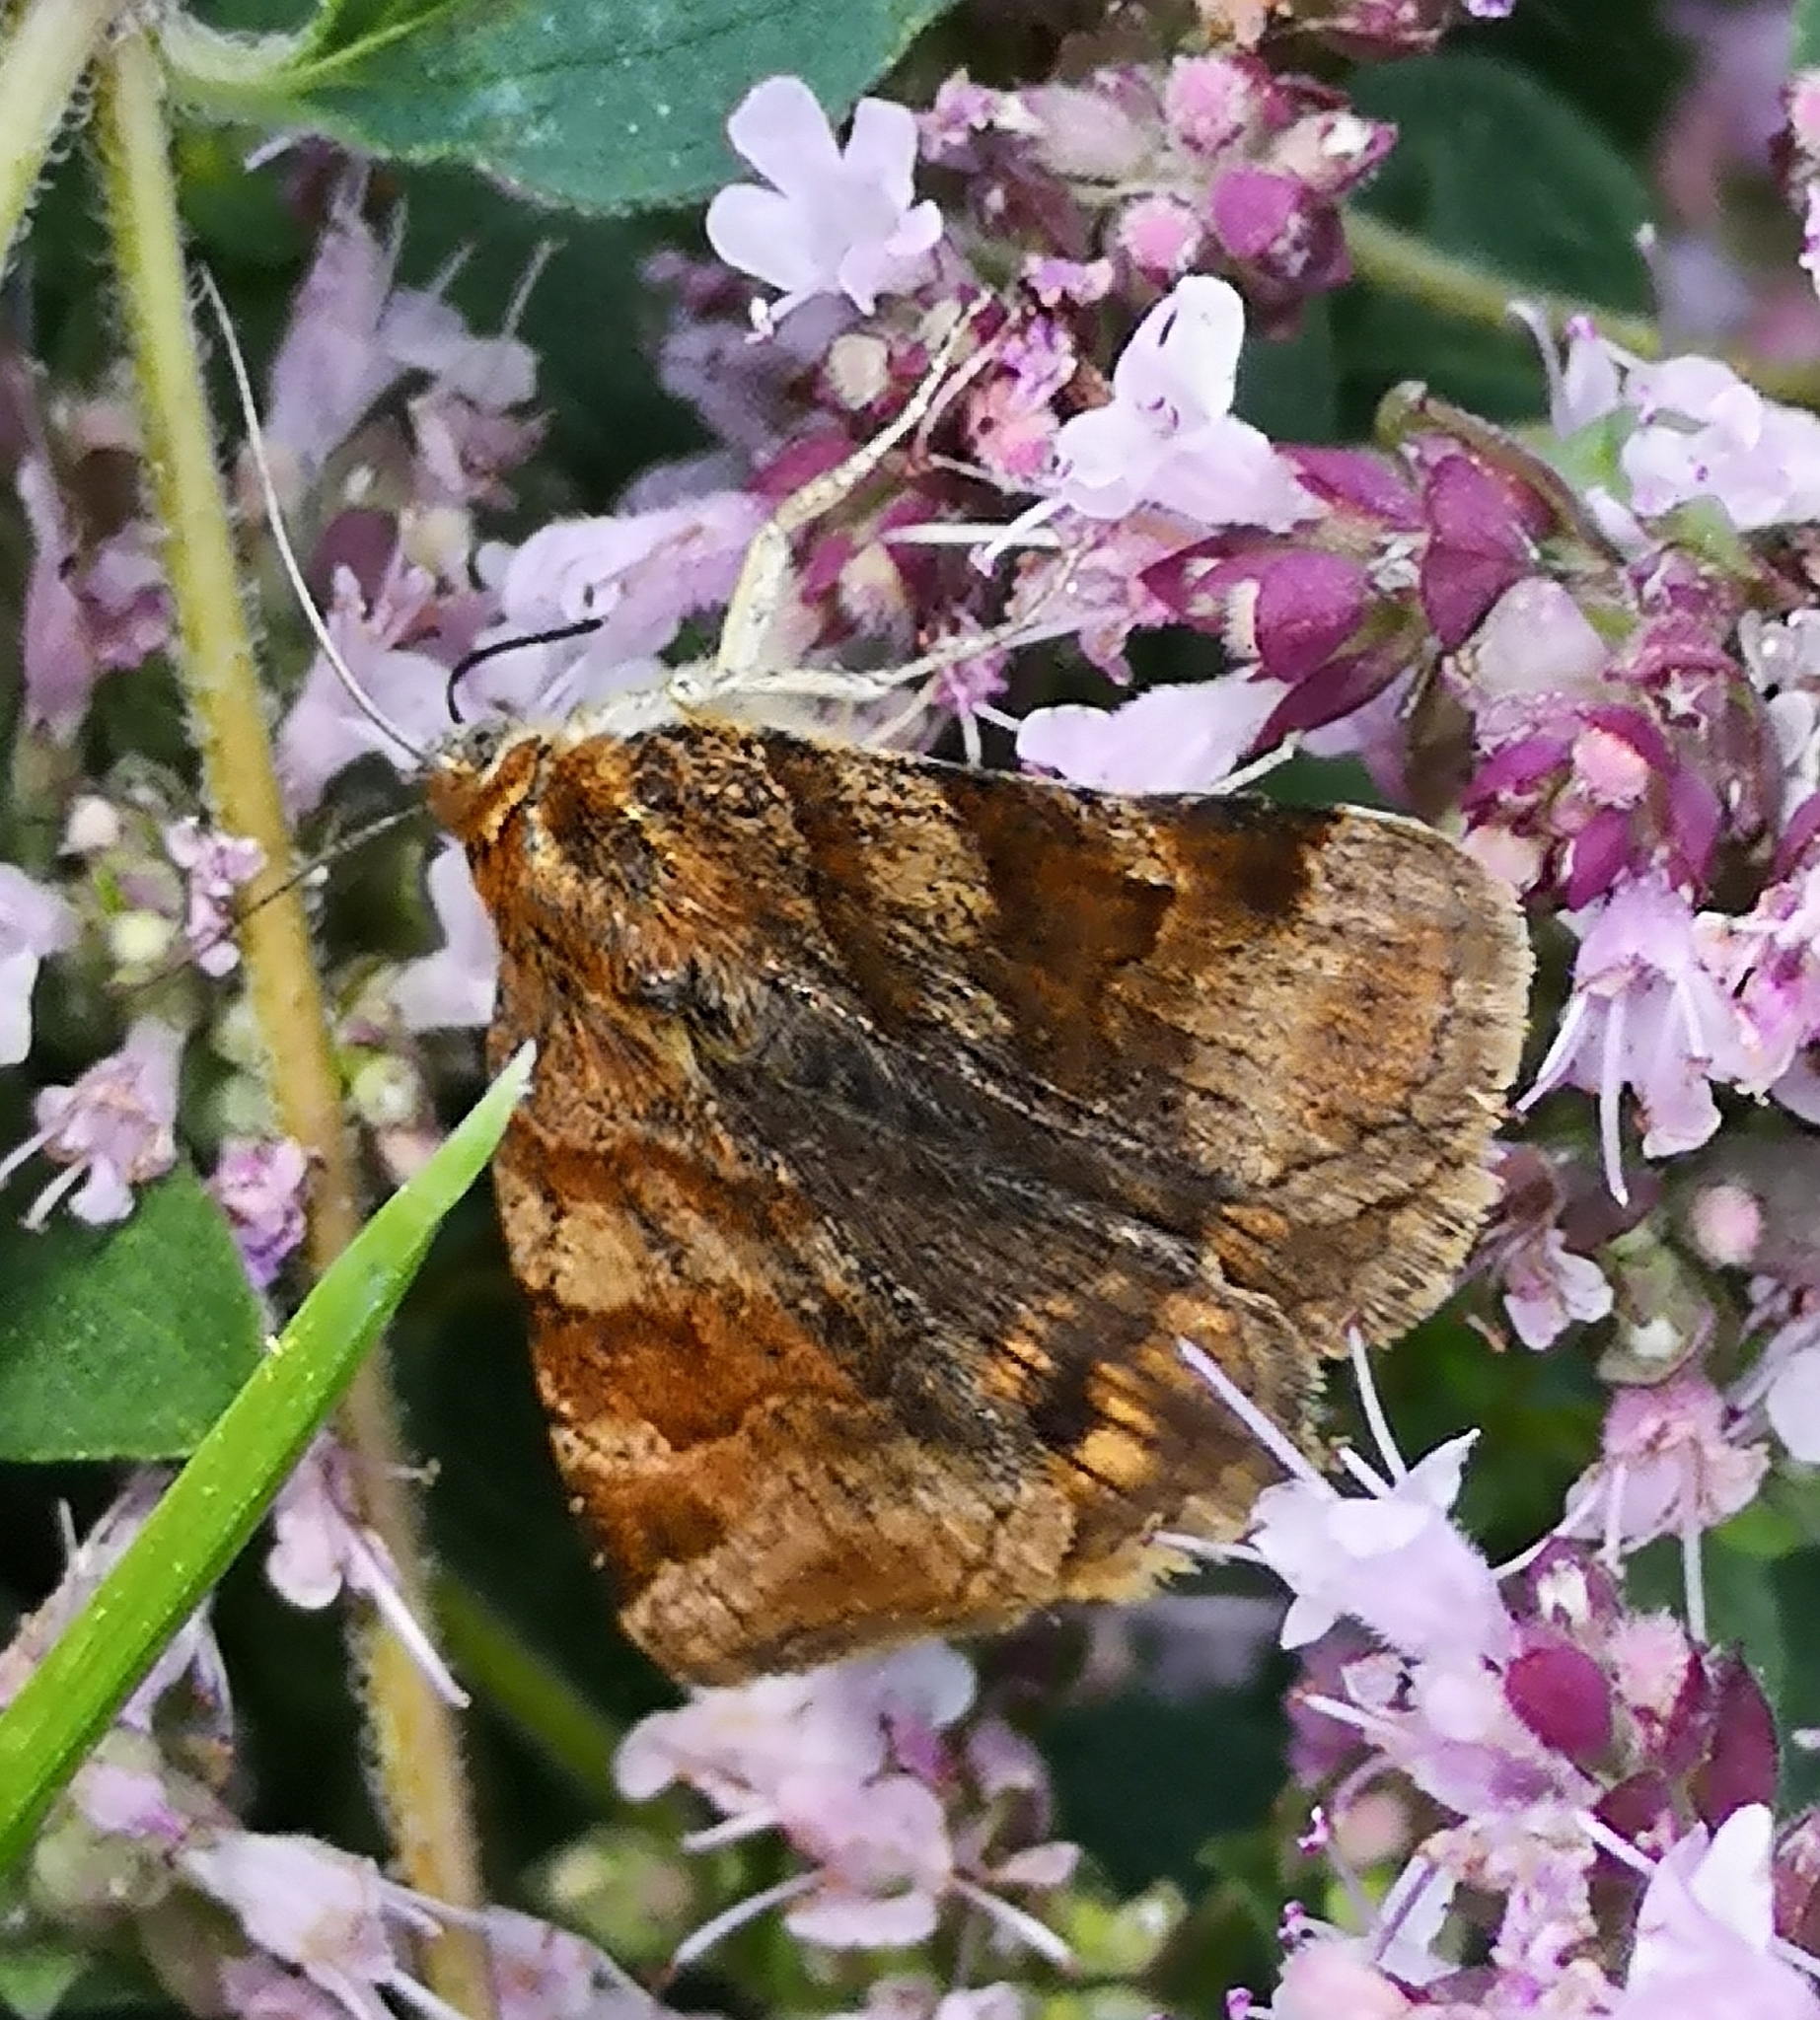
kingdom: Animalia
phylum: Arthropoda
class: Insecta
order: Lepidoptera
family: Erebidae
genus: Euclidia
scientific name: Euclidia glyphica
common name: Burnet companion
